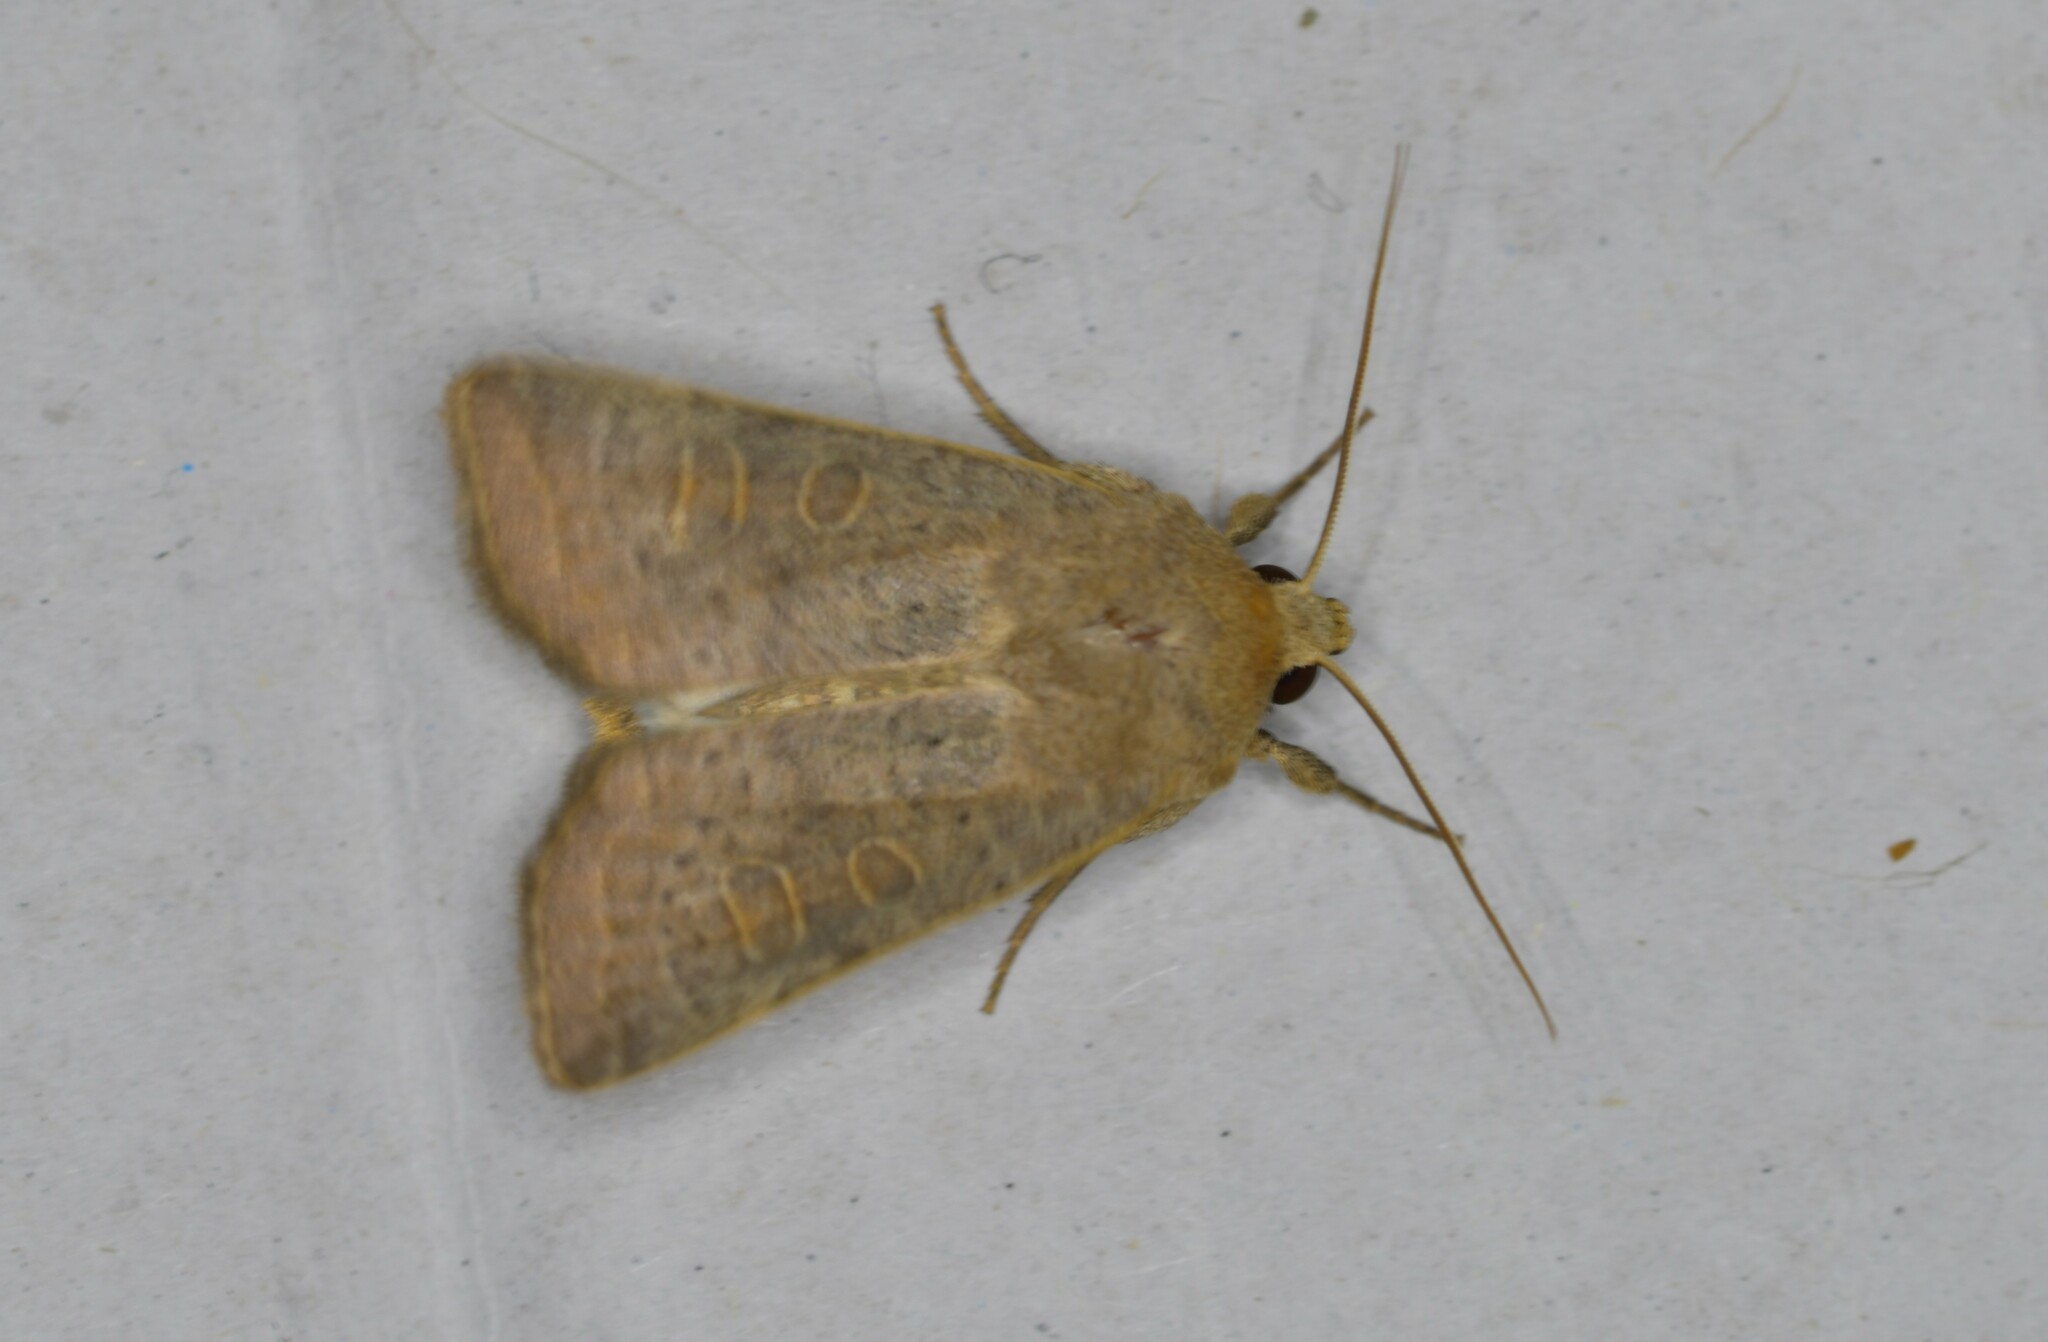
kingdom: Animalia
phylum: Arthropoda
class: Insecta
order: Lepidoptera
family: Noctuidae
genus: Hoplodrina
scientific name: Hoplodrina ambigua
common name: Vine's rustic
